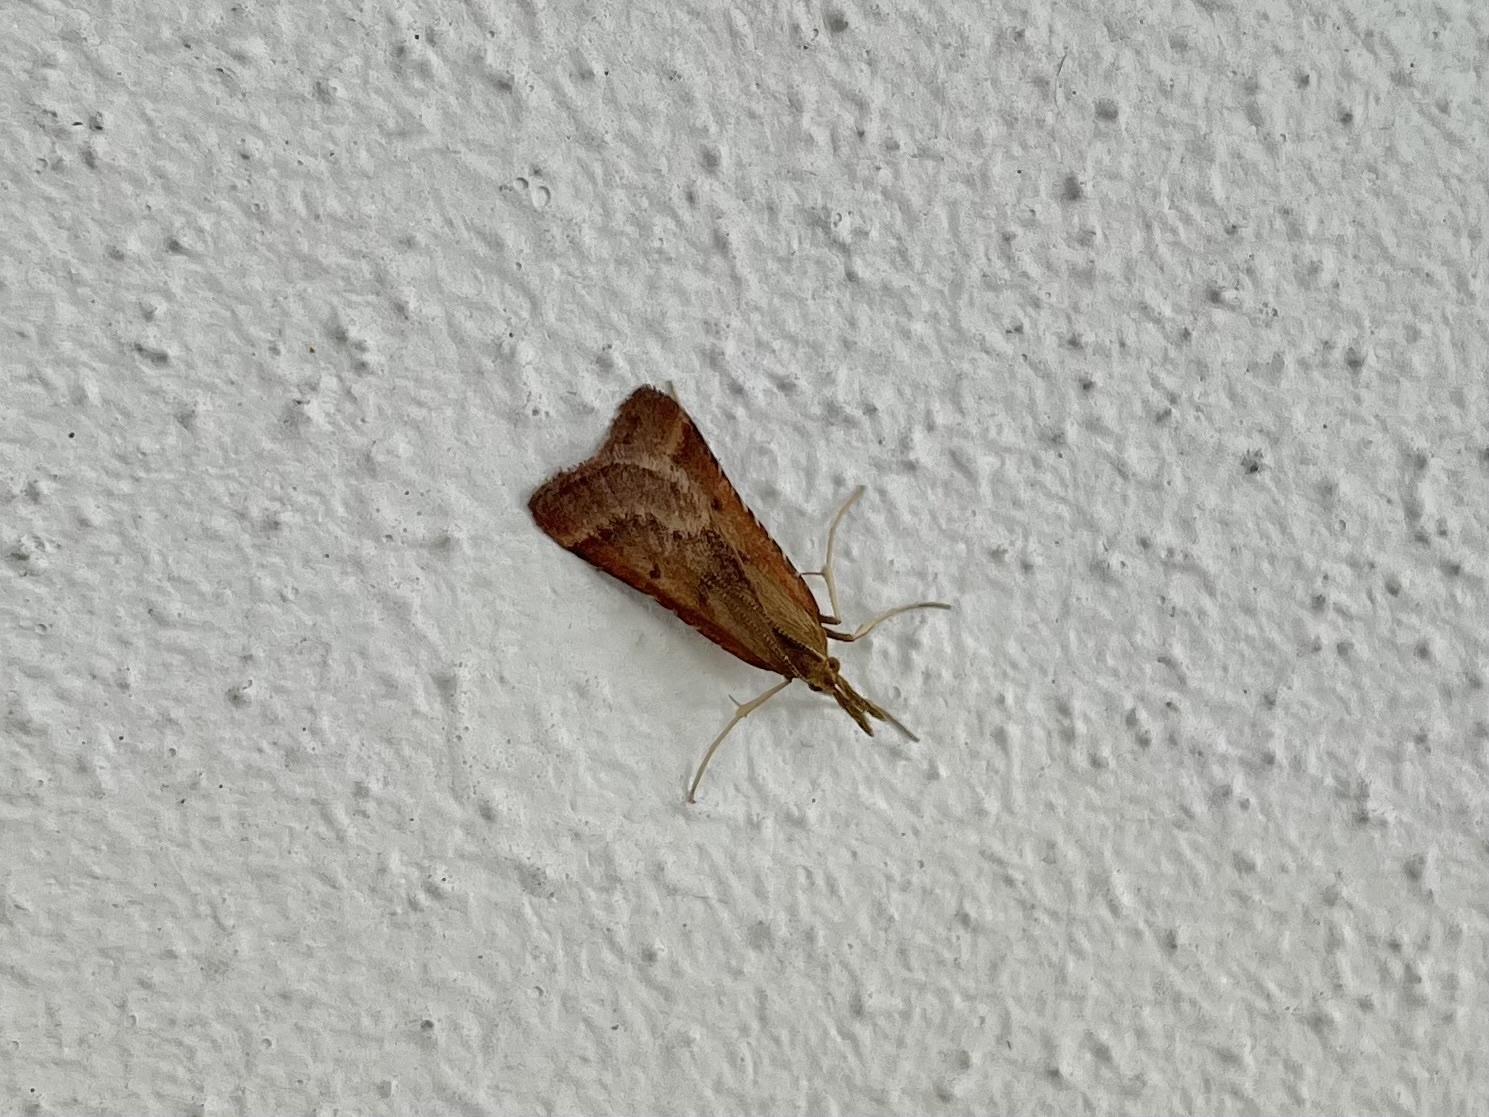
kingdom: Animalia
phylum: Arthropoda
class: Insecta
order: Lepidoptera
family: Pyralidae
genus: Synaphe
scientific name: Synaphe punctalis
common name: Long-legged tabby
